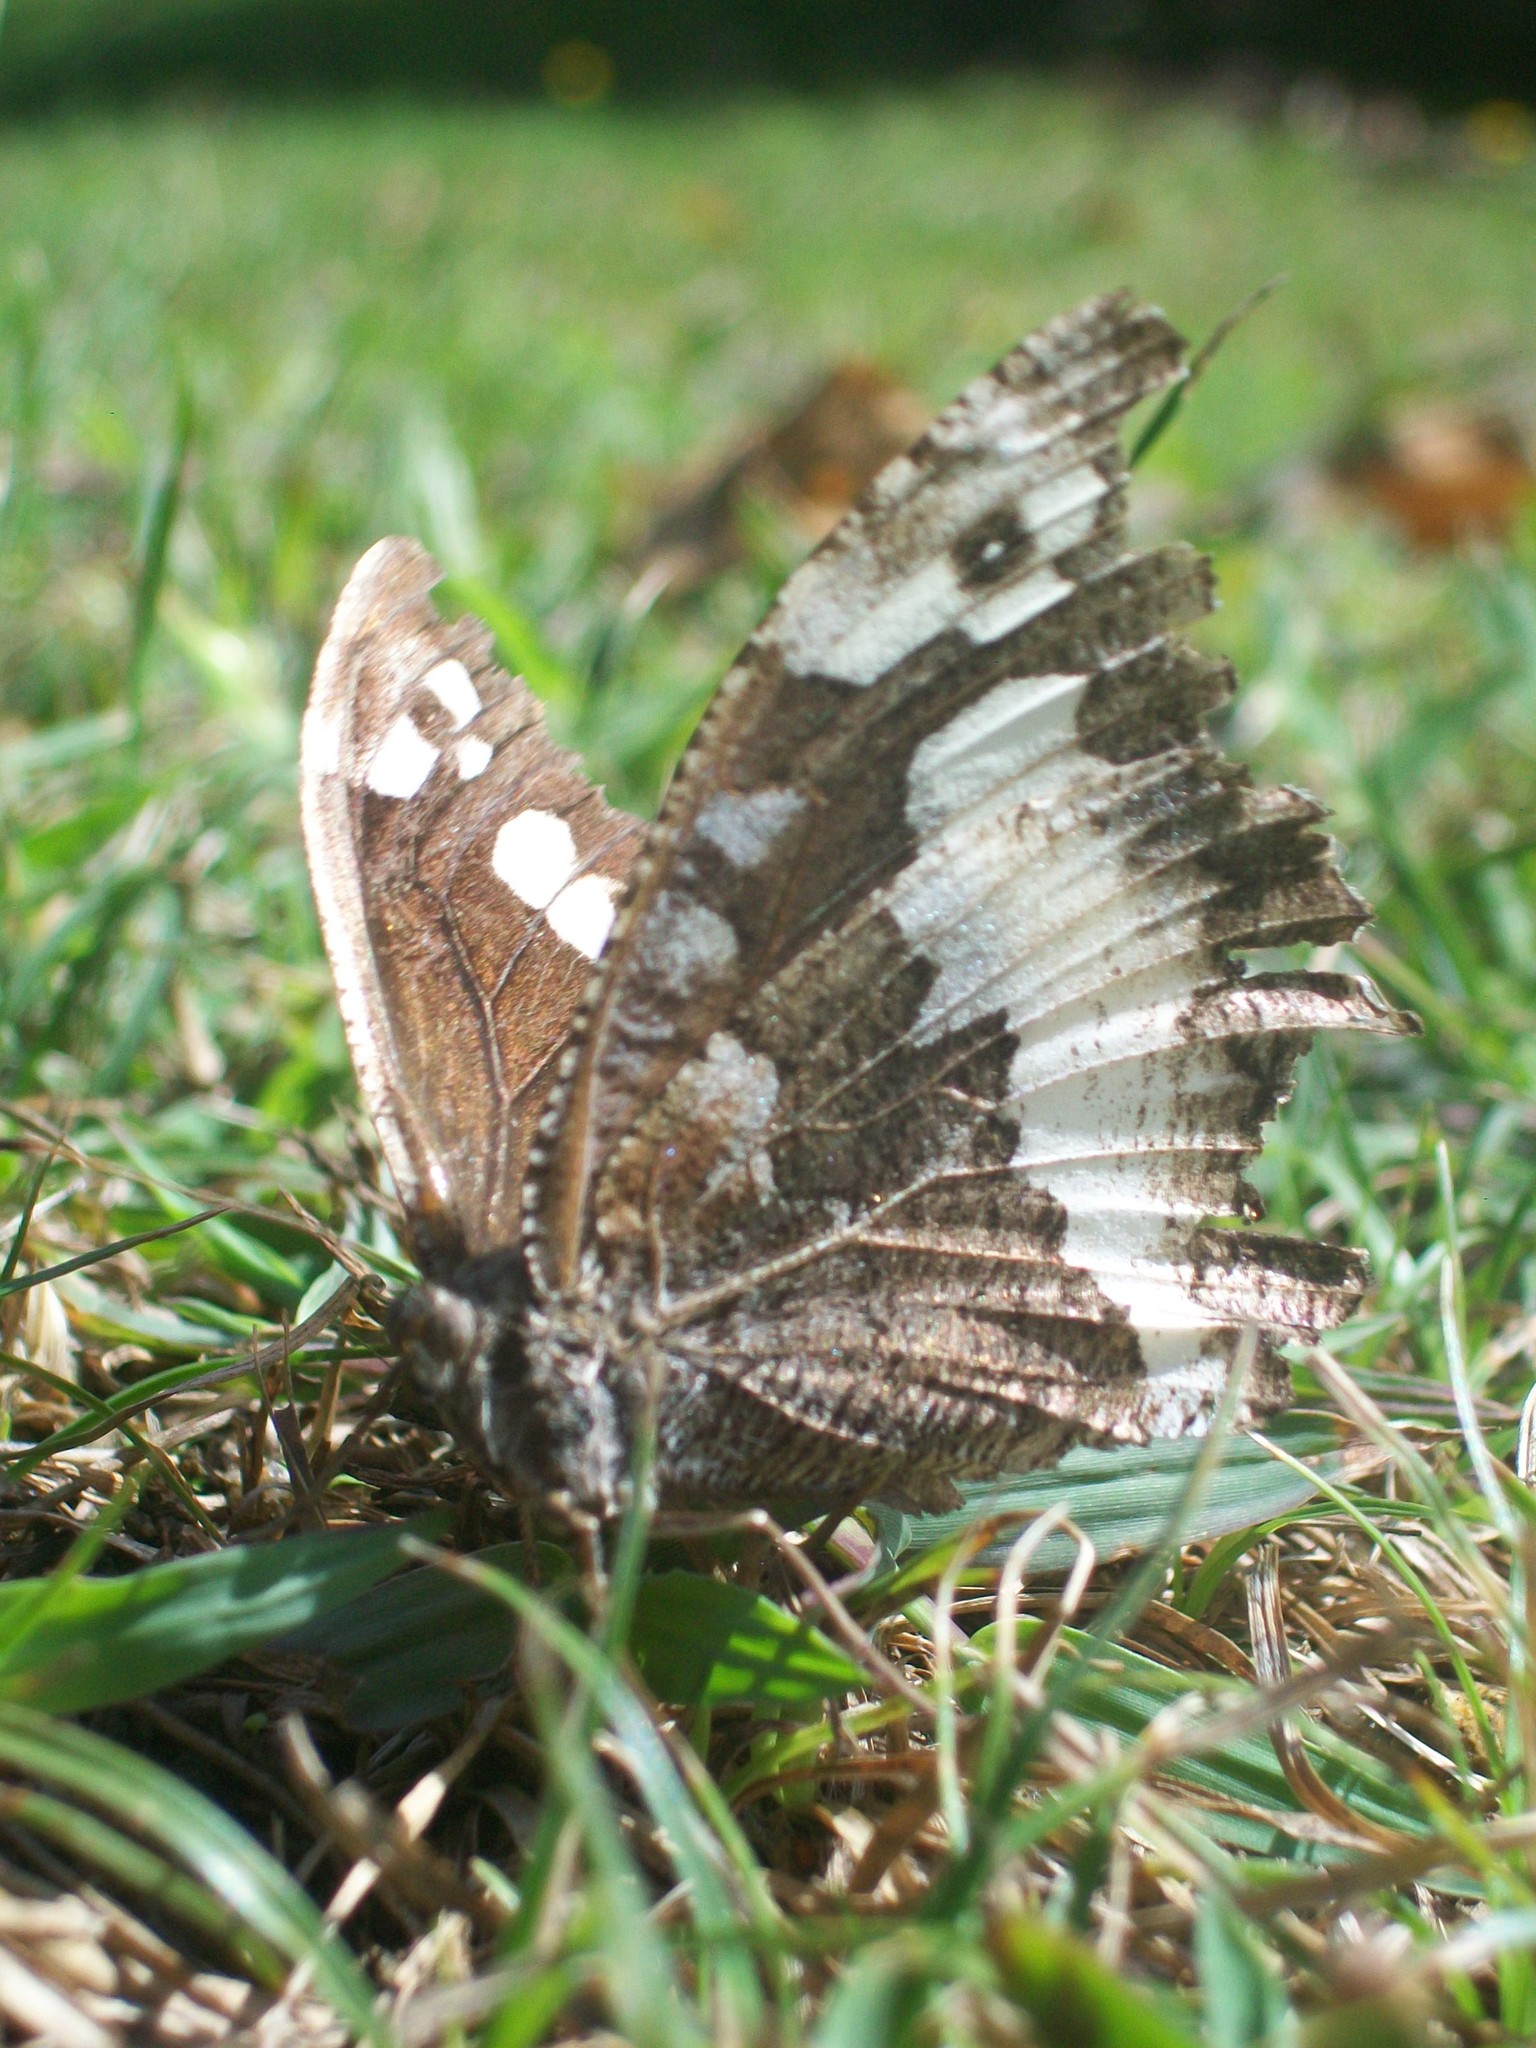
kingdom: Animalia
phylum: Arthropoda
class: Insecta
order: Lepidoptera
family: Lycaenidae
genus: Loweia
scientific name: Loweia tityrus
